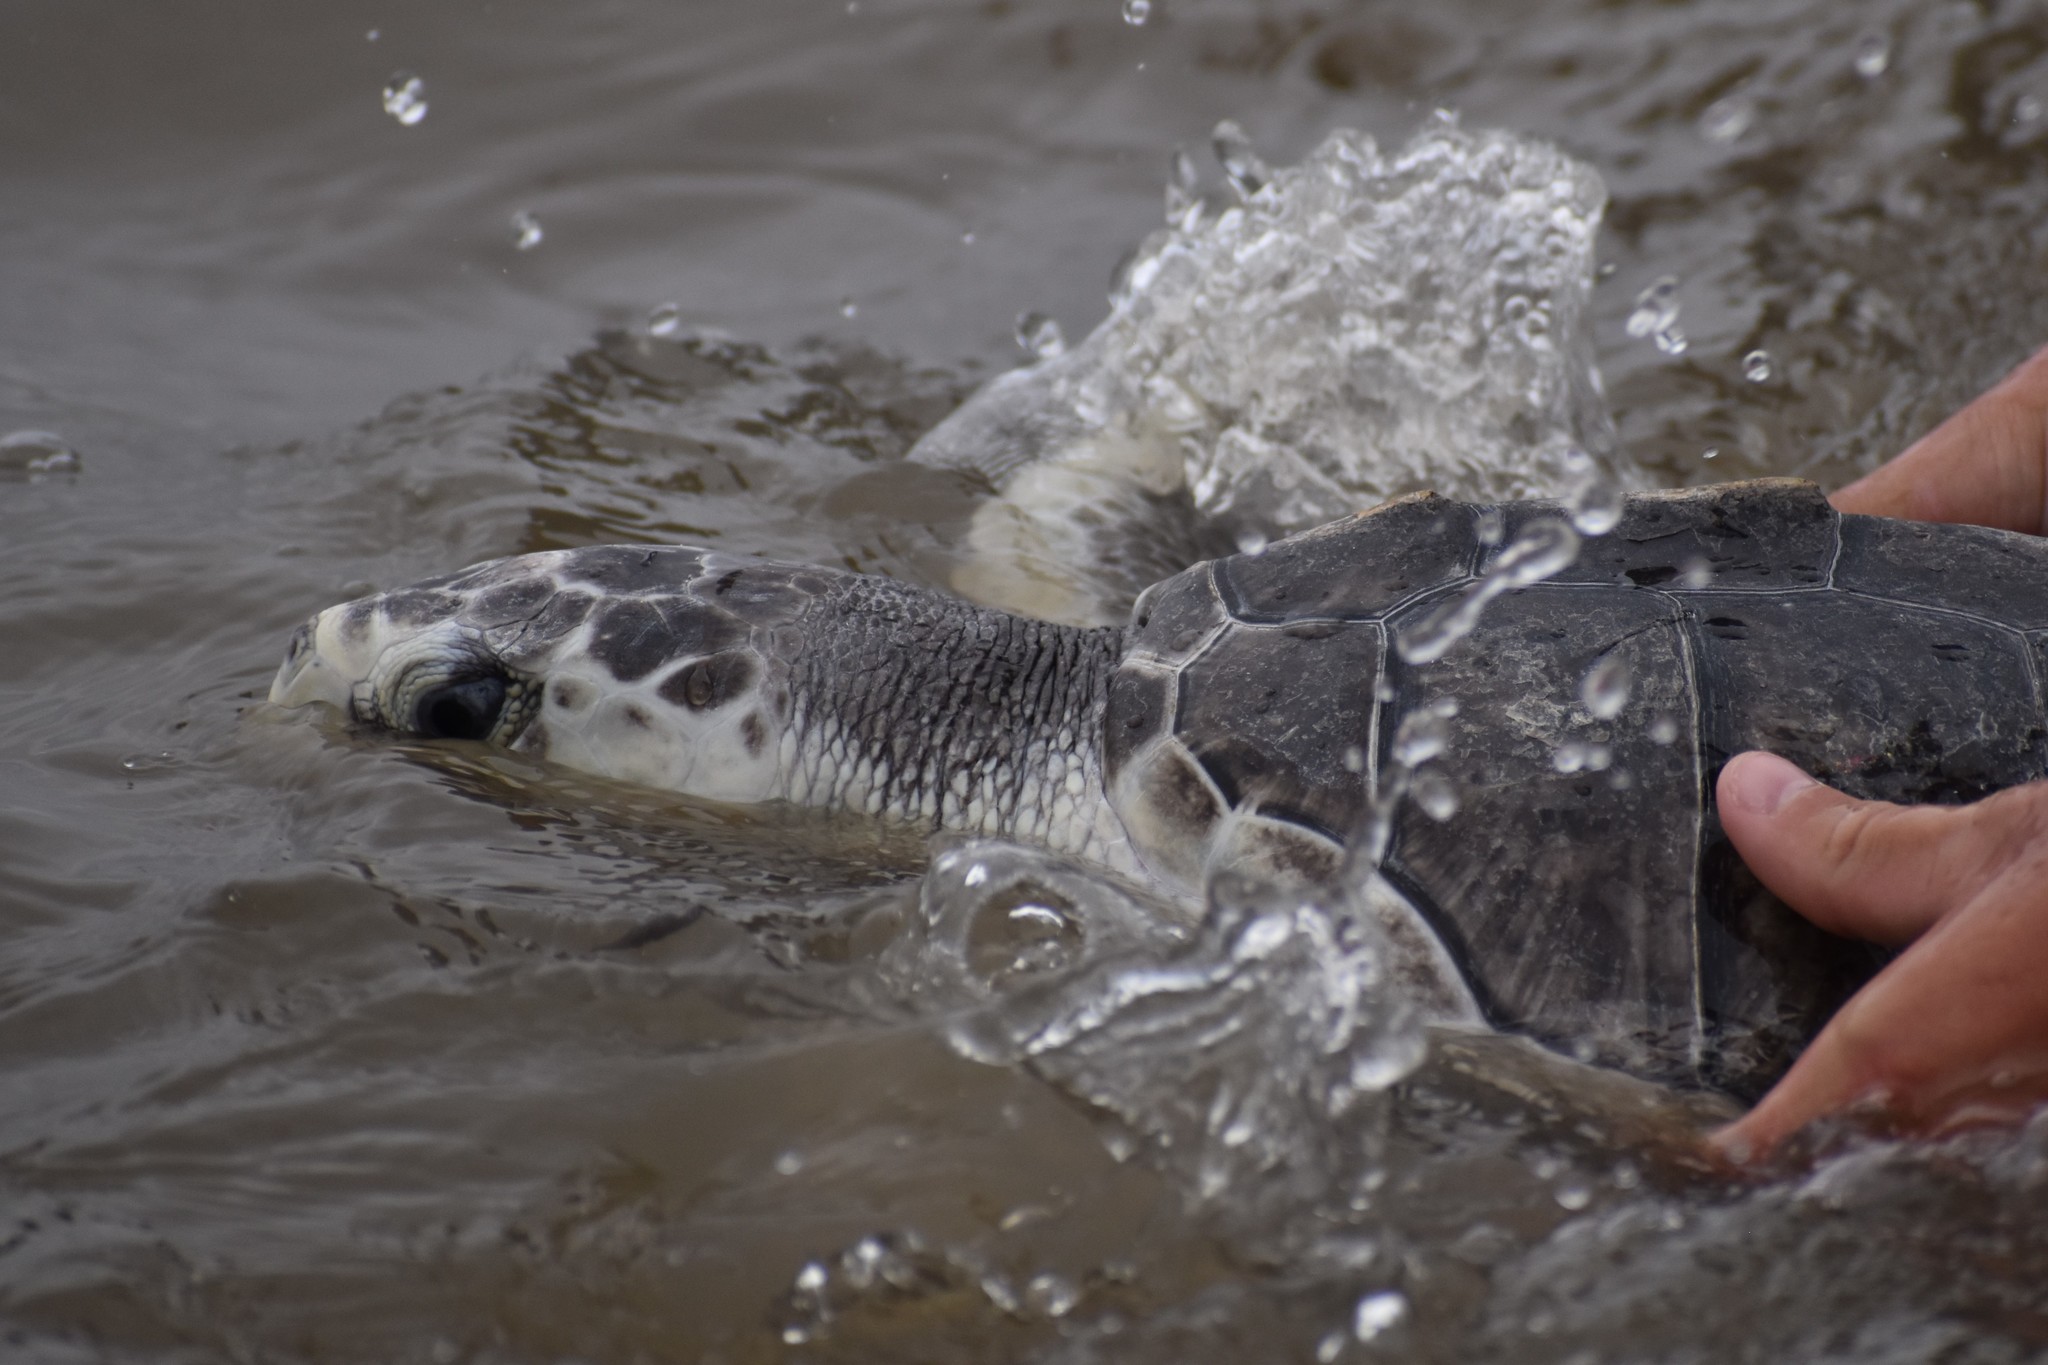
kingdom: Animalia
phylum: Chordata
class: Testudines
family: Cheloniidae
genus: Lepidochelys
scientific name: Lepidochelys kempii
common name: Kemp's ridley turtle
